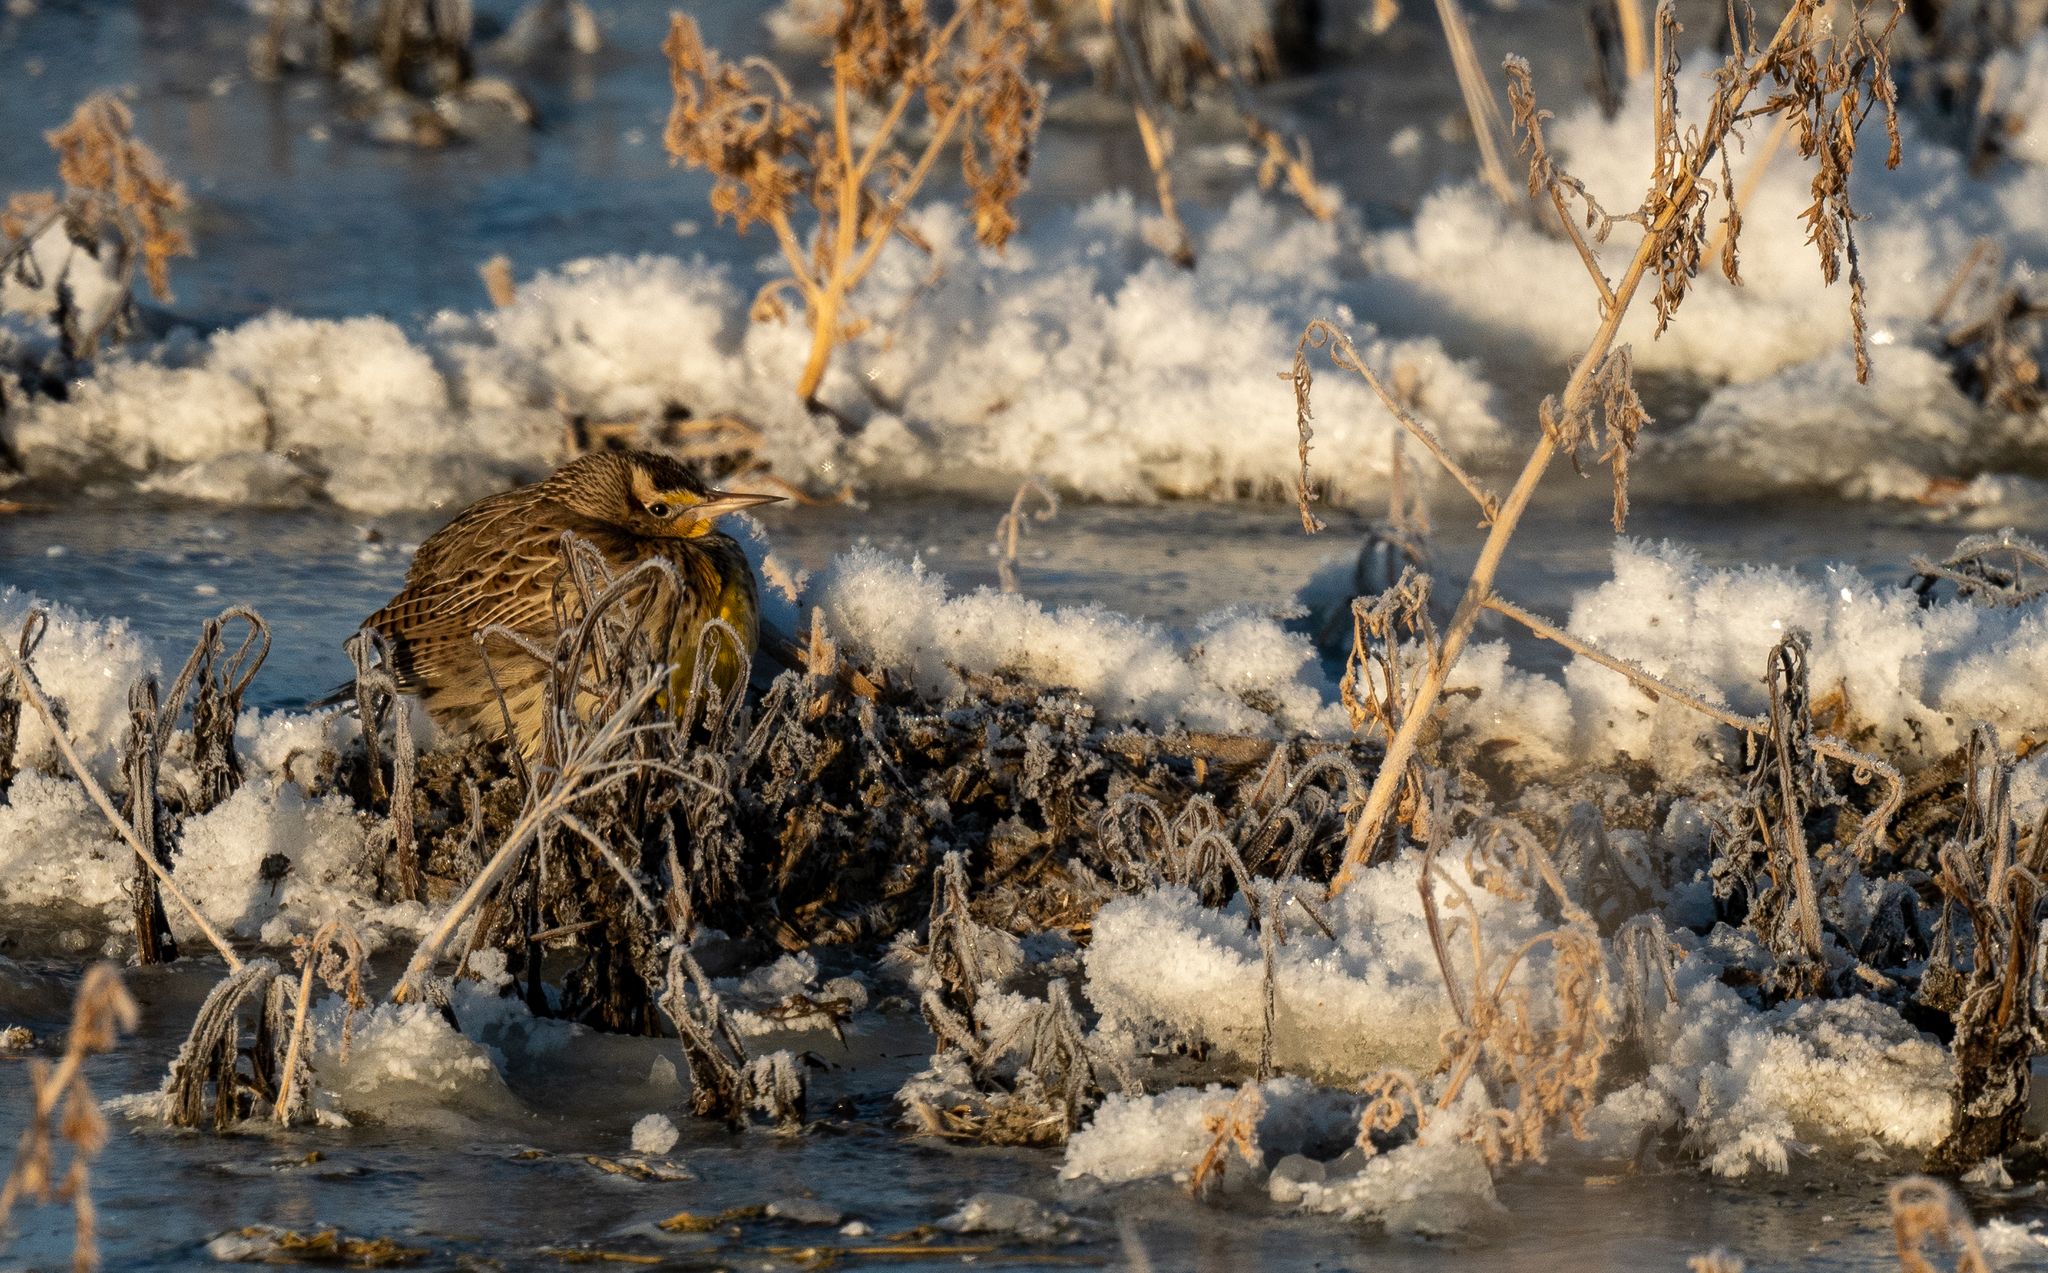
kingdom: Animalia
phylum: Chordata
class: Aves
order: Passeriformes
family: Icteridae
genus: Sturnella
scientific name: Sturnella neglecta
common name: Western meadowlark
